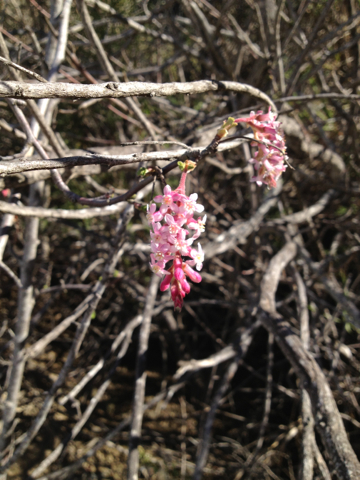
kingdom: Plantae
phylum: Tracheophyta
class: Magnoliopsida
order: Saxifragales
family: Grossulariaceae
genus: Ribes
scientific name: Ribes malvaceum
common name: Chaparral currant
